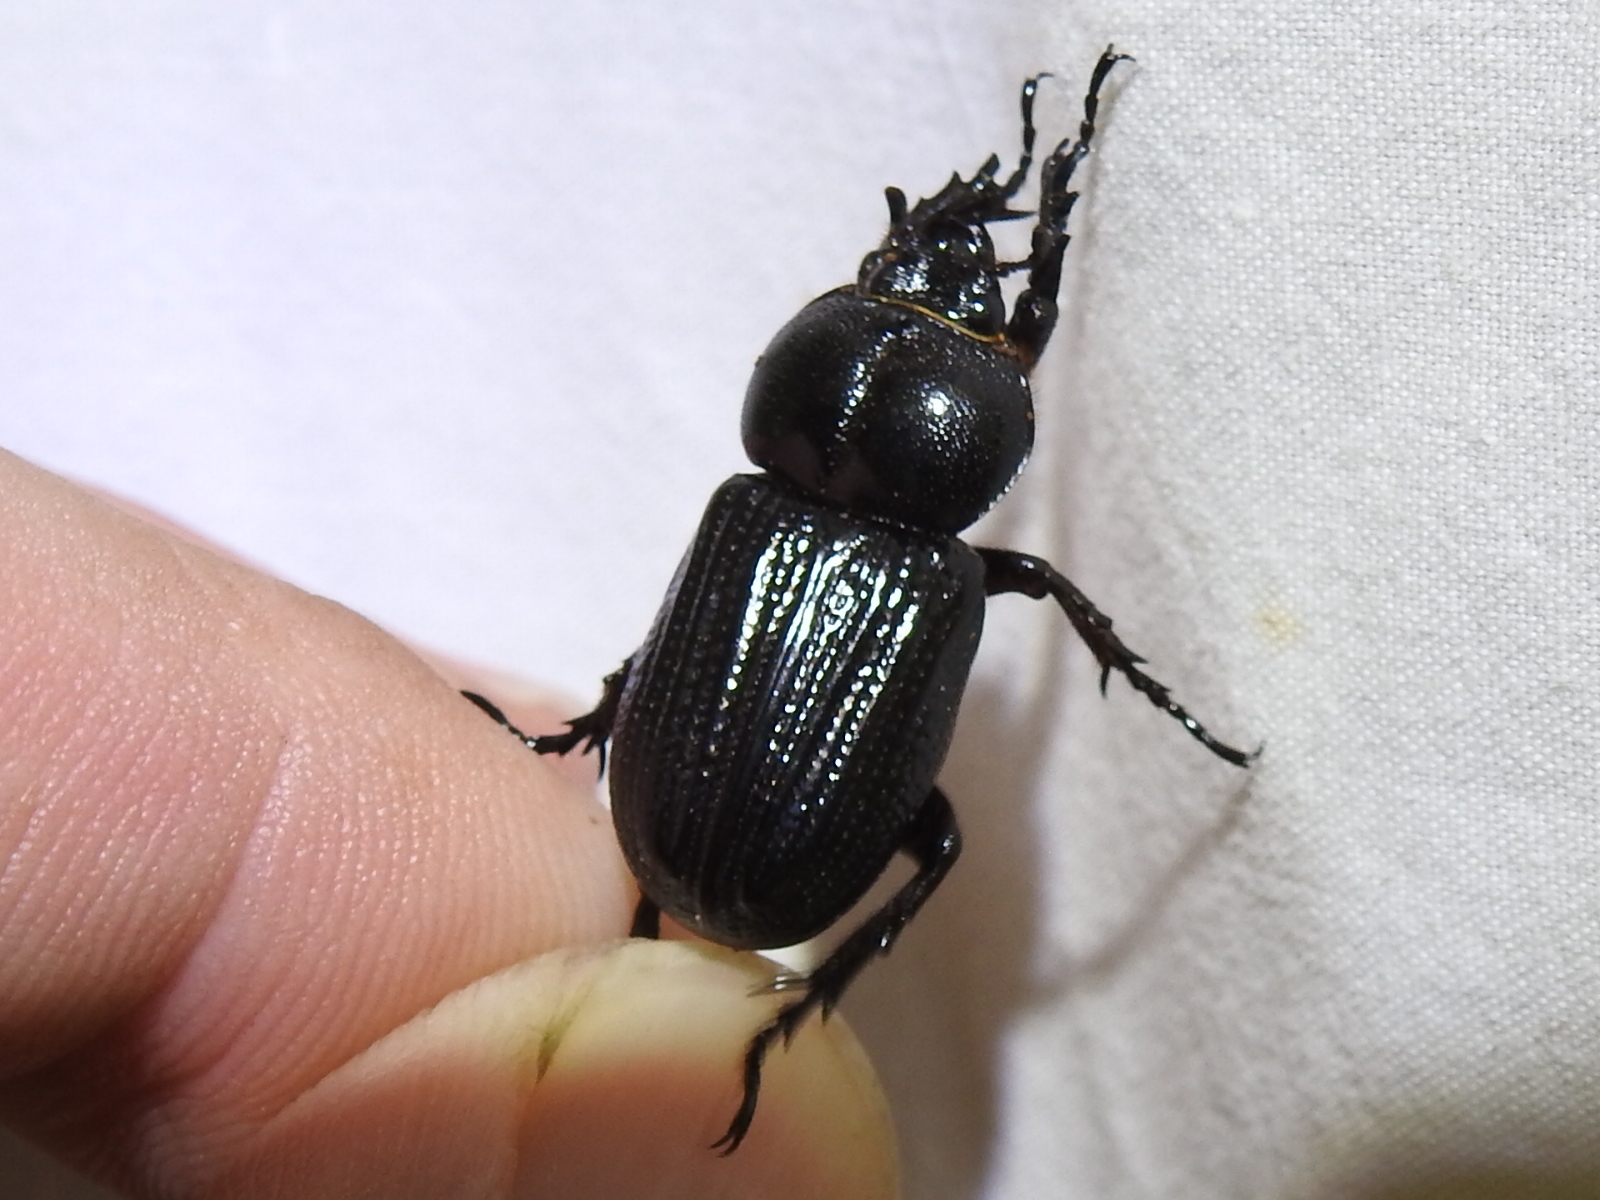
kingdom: Animalia
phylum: Arthropoda
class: Insecta
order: Coleoptera
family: Scarabaeidae
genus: Phileurus
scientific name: Phileurus valgus
